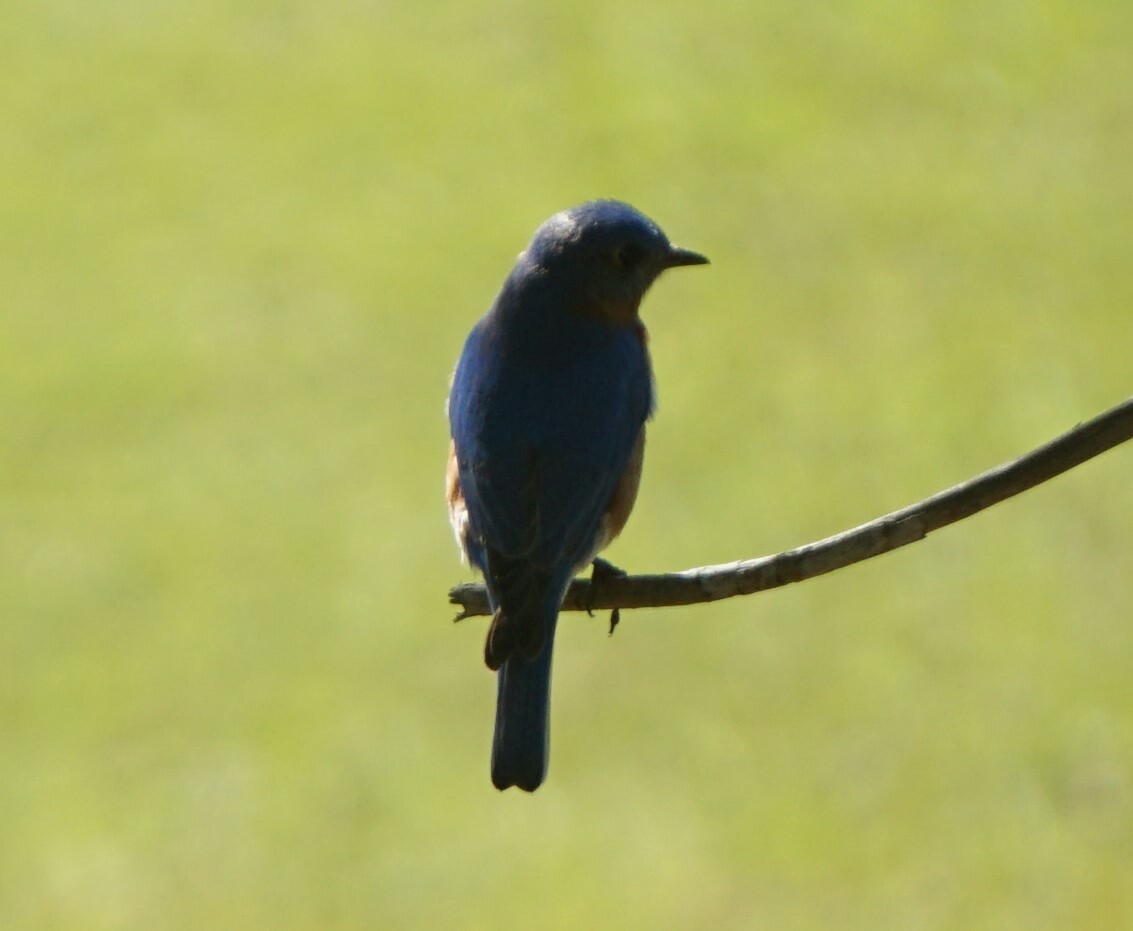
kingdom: Animalia
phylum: Chordata
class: Aves
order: Passeriformes
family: Turdidae
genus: Sialia
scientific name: Sialia sialis
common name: Eastern bluebird
